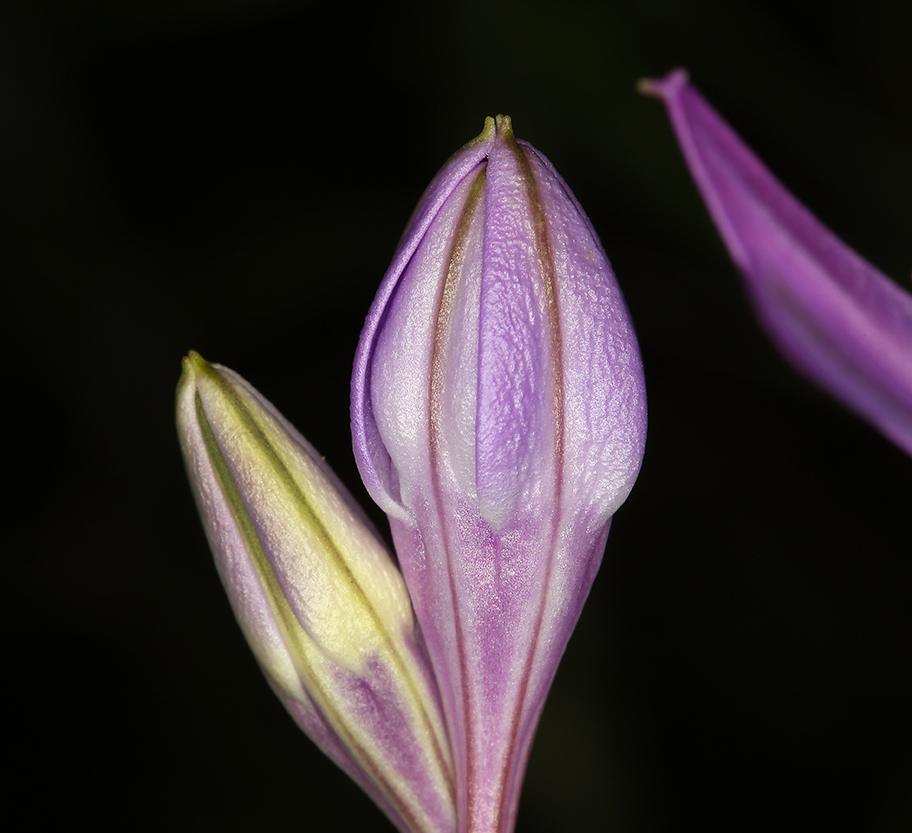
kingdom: Plantae
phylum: Tracheophyta
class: Liliopsida
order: Asparagales
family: Asparagaceae
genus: Triteleia
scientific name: Triteleia bridgesii
